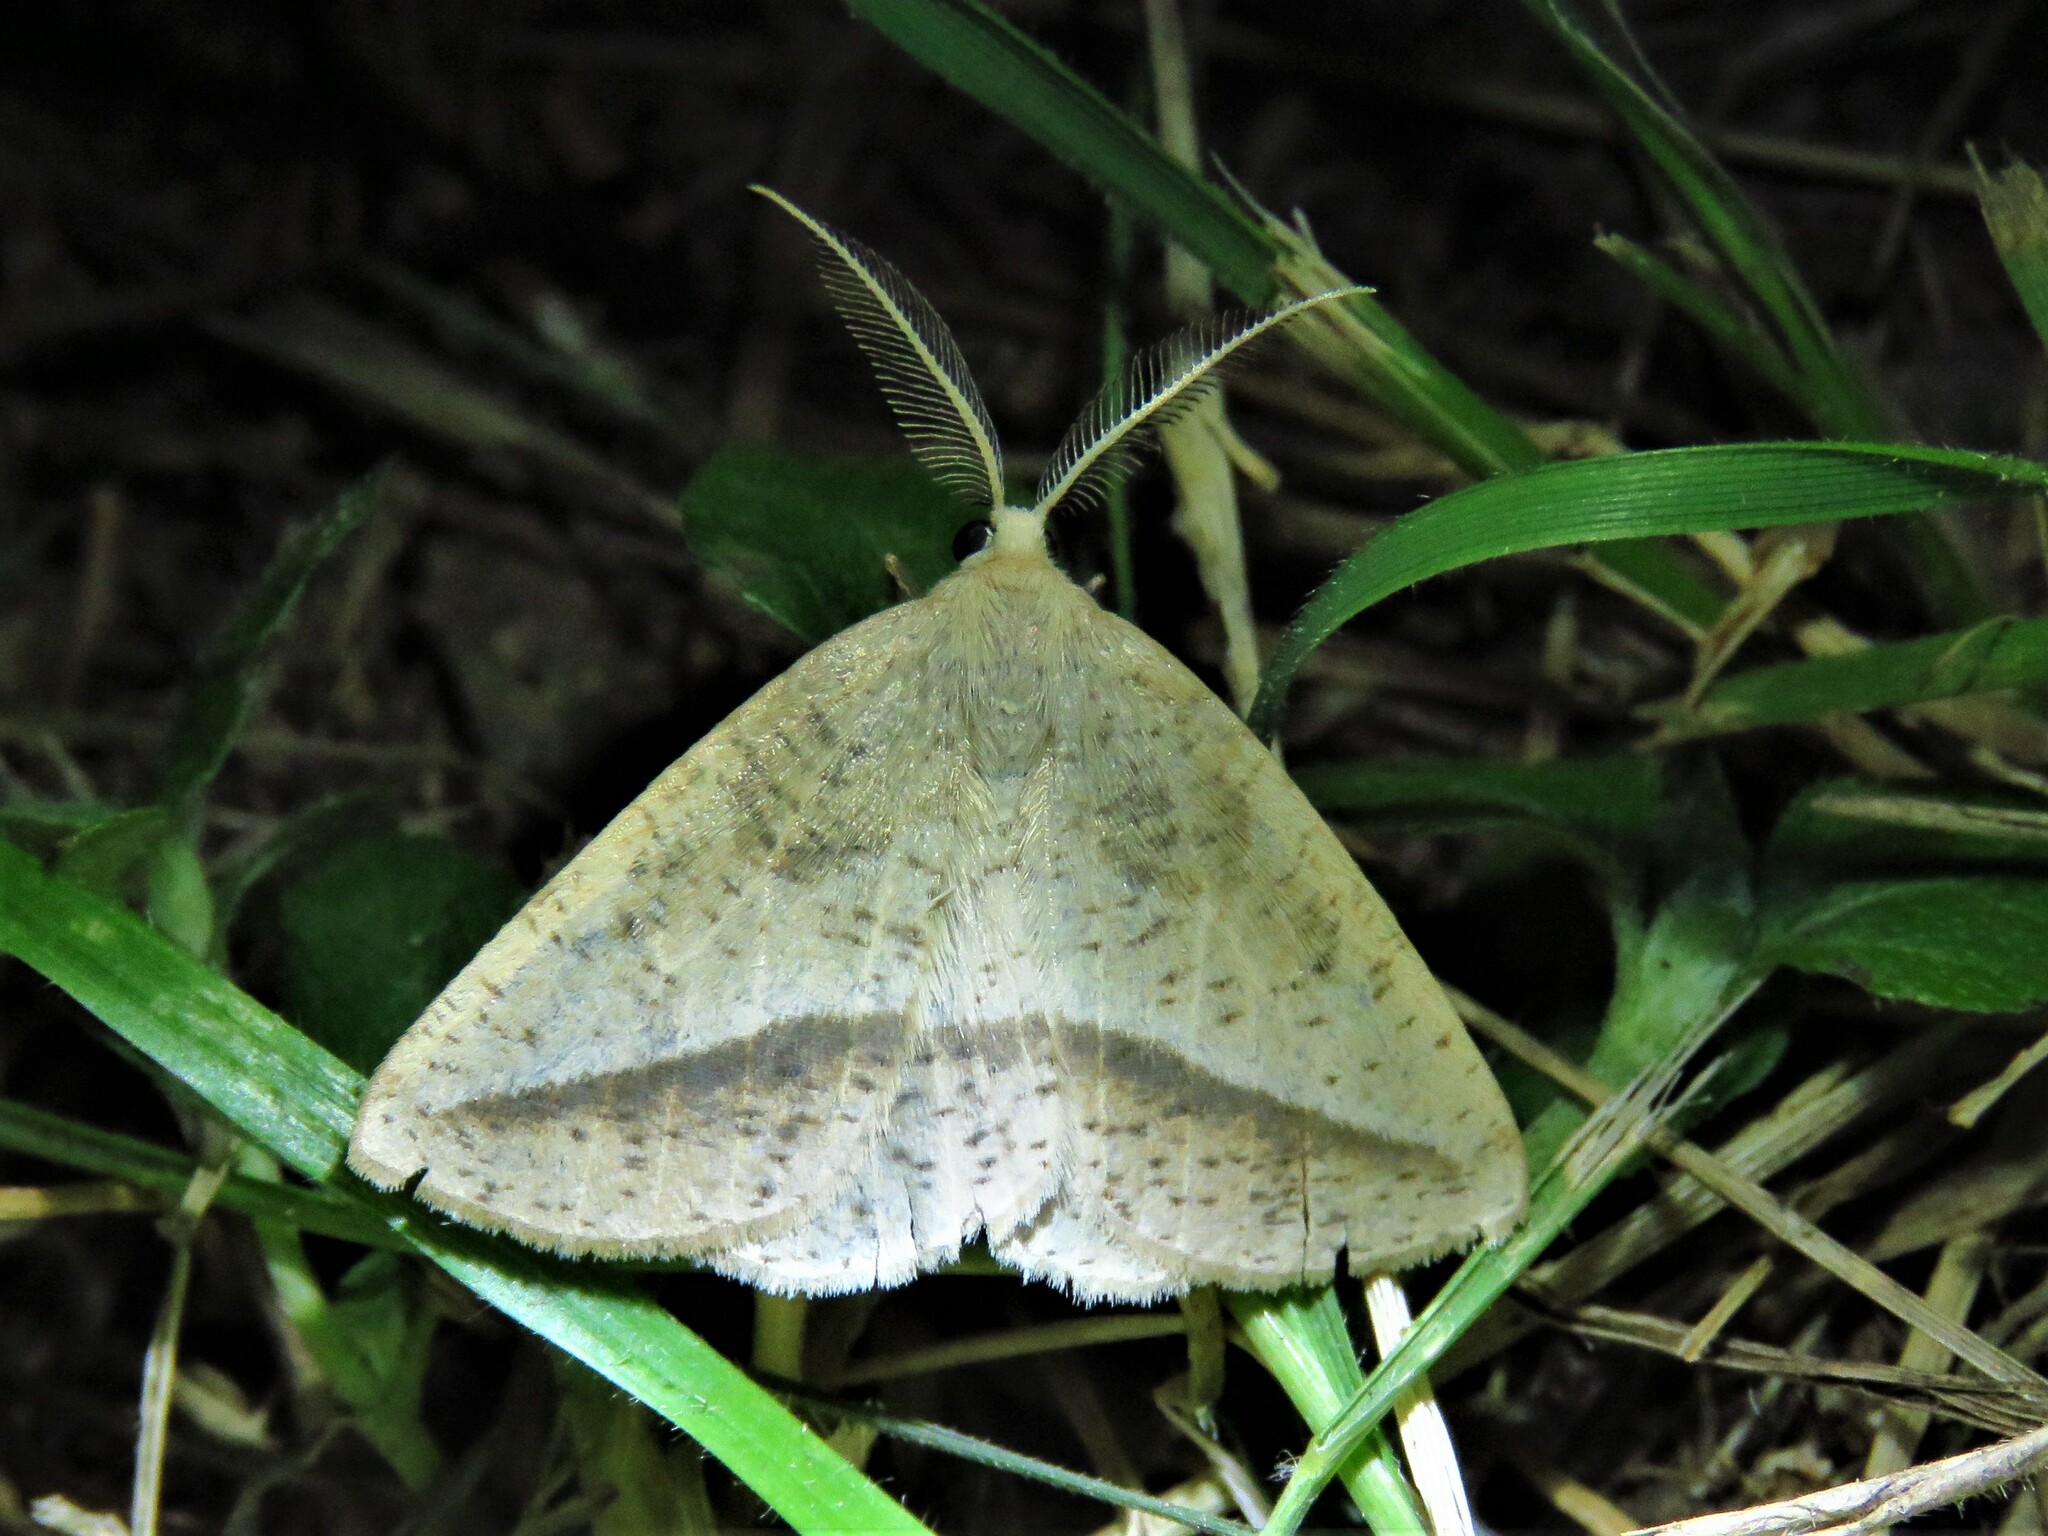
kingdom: Animalia
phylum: Arthropoda
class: Insecta
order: Lepidoptera
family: Geometridae
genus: Lychnosea
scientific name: Lychnosea intermicata
